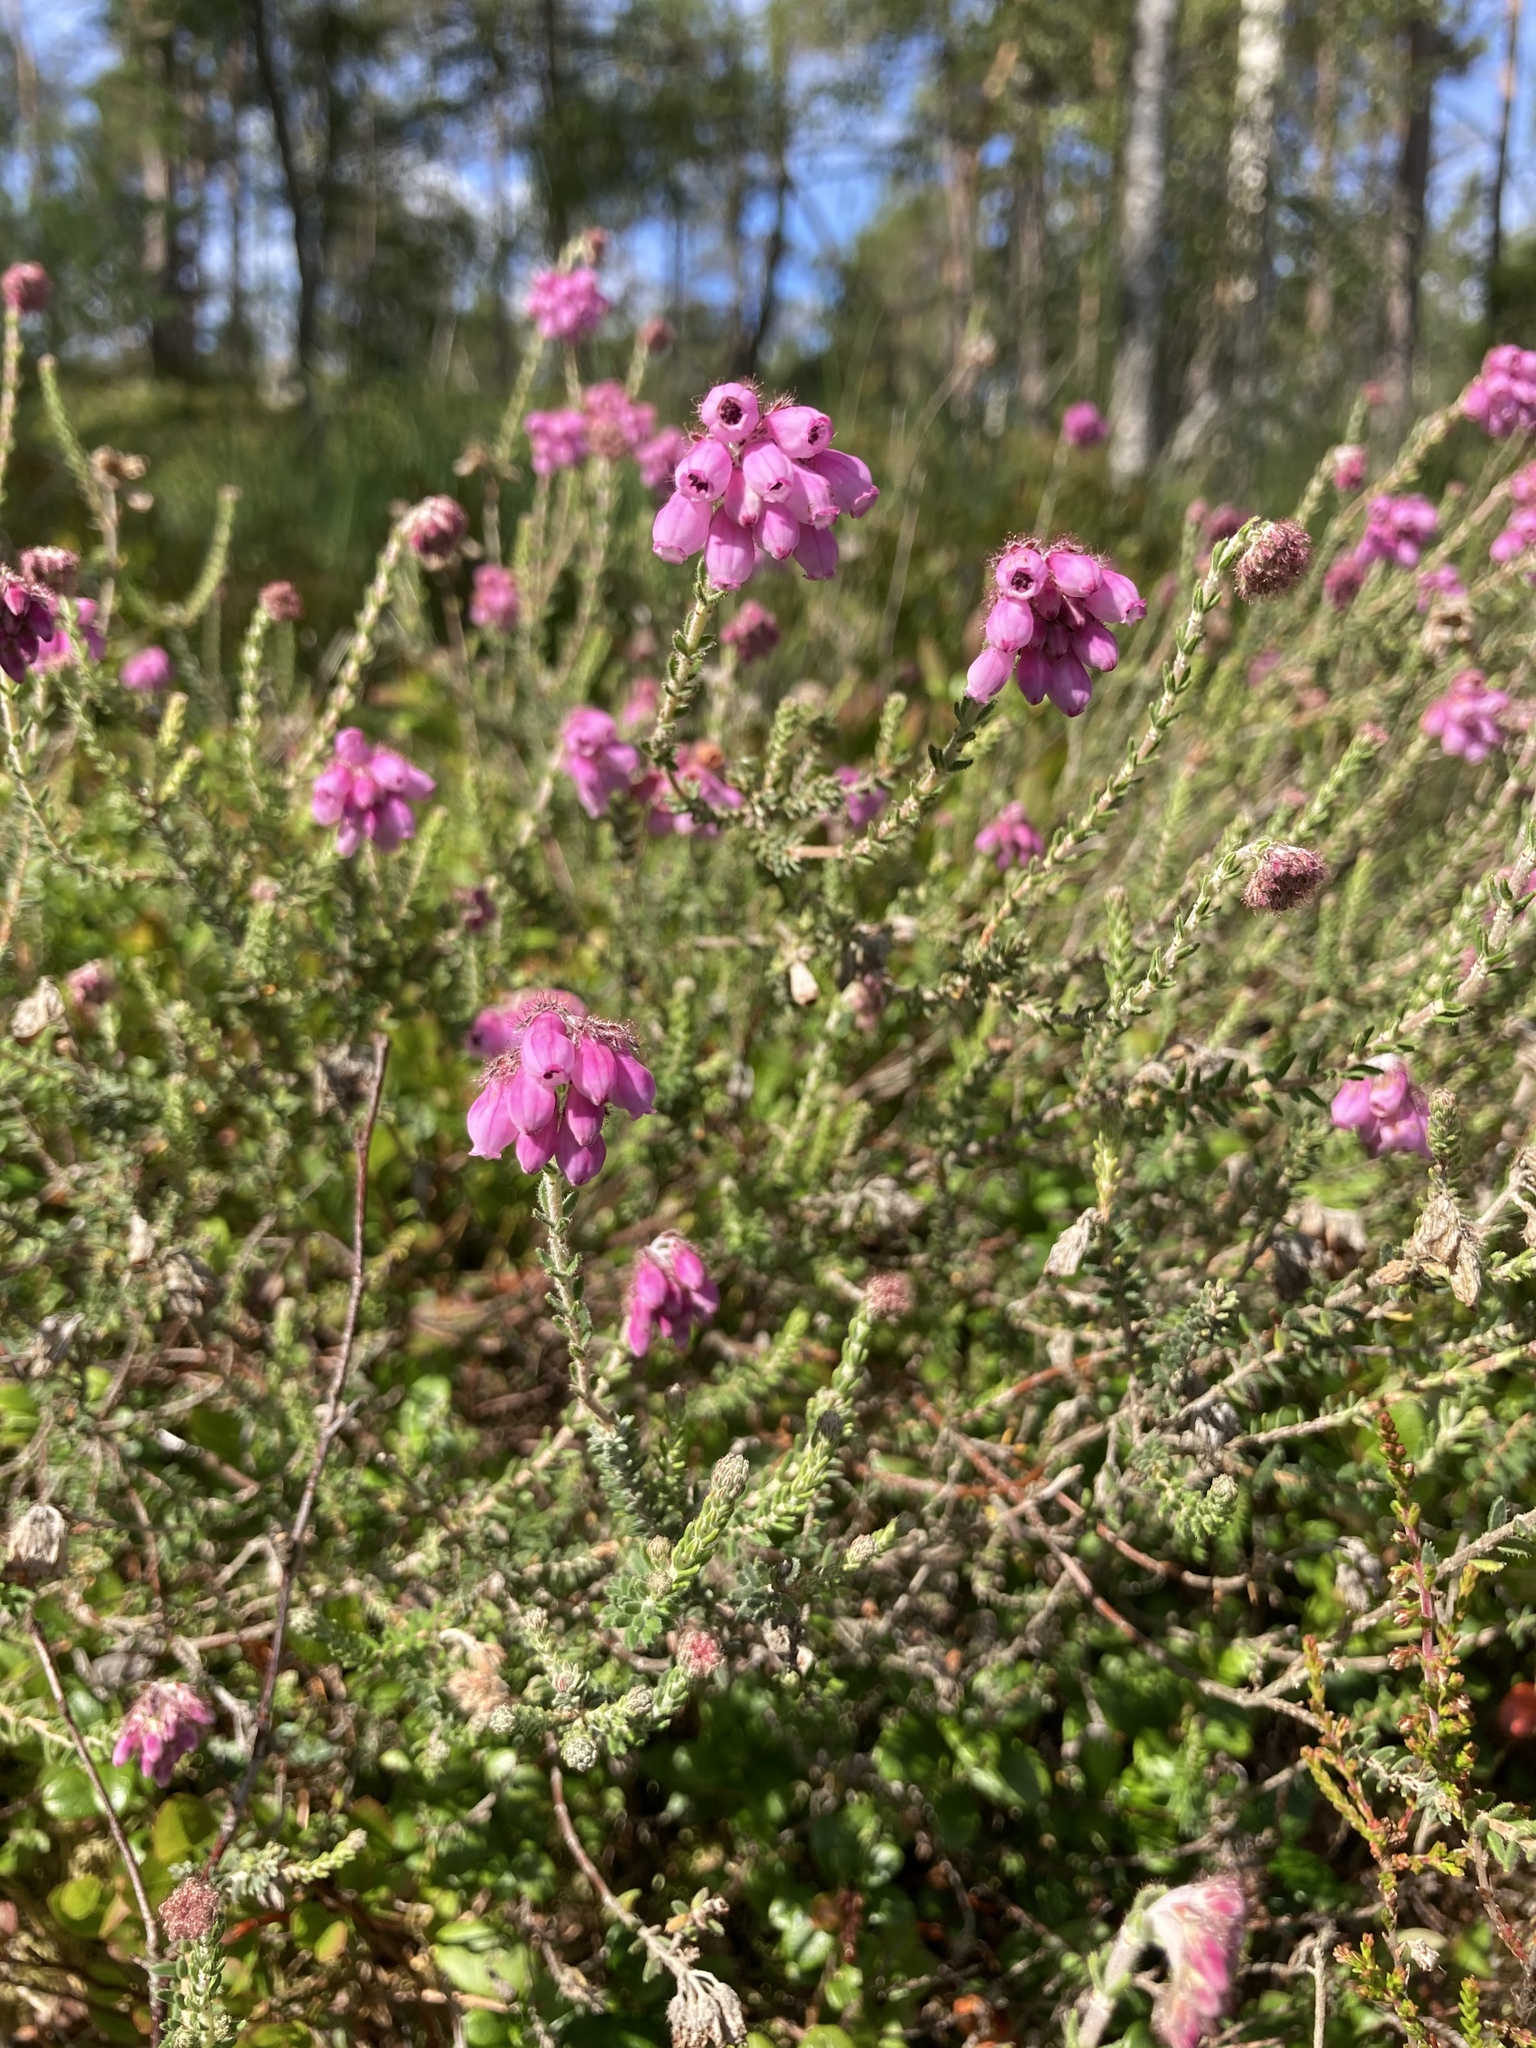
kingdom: Plantae
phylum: Tracheophyta
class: Magnoliopsida
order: Ericales
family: Ericaceae
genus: Erica
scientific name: Erica tetralix
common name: Cross-leaved heath
